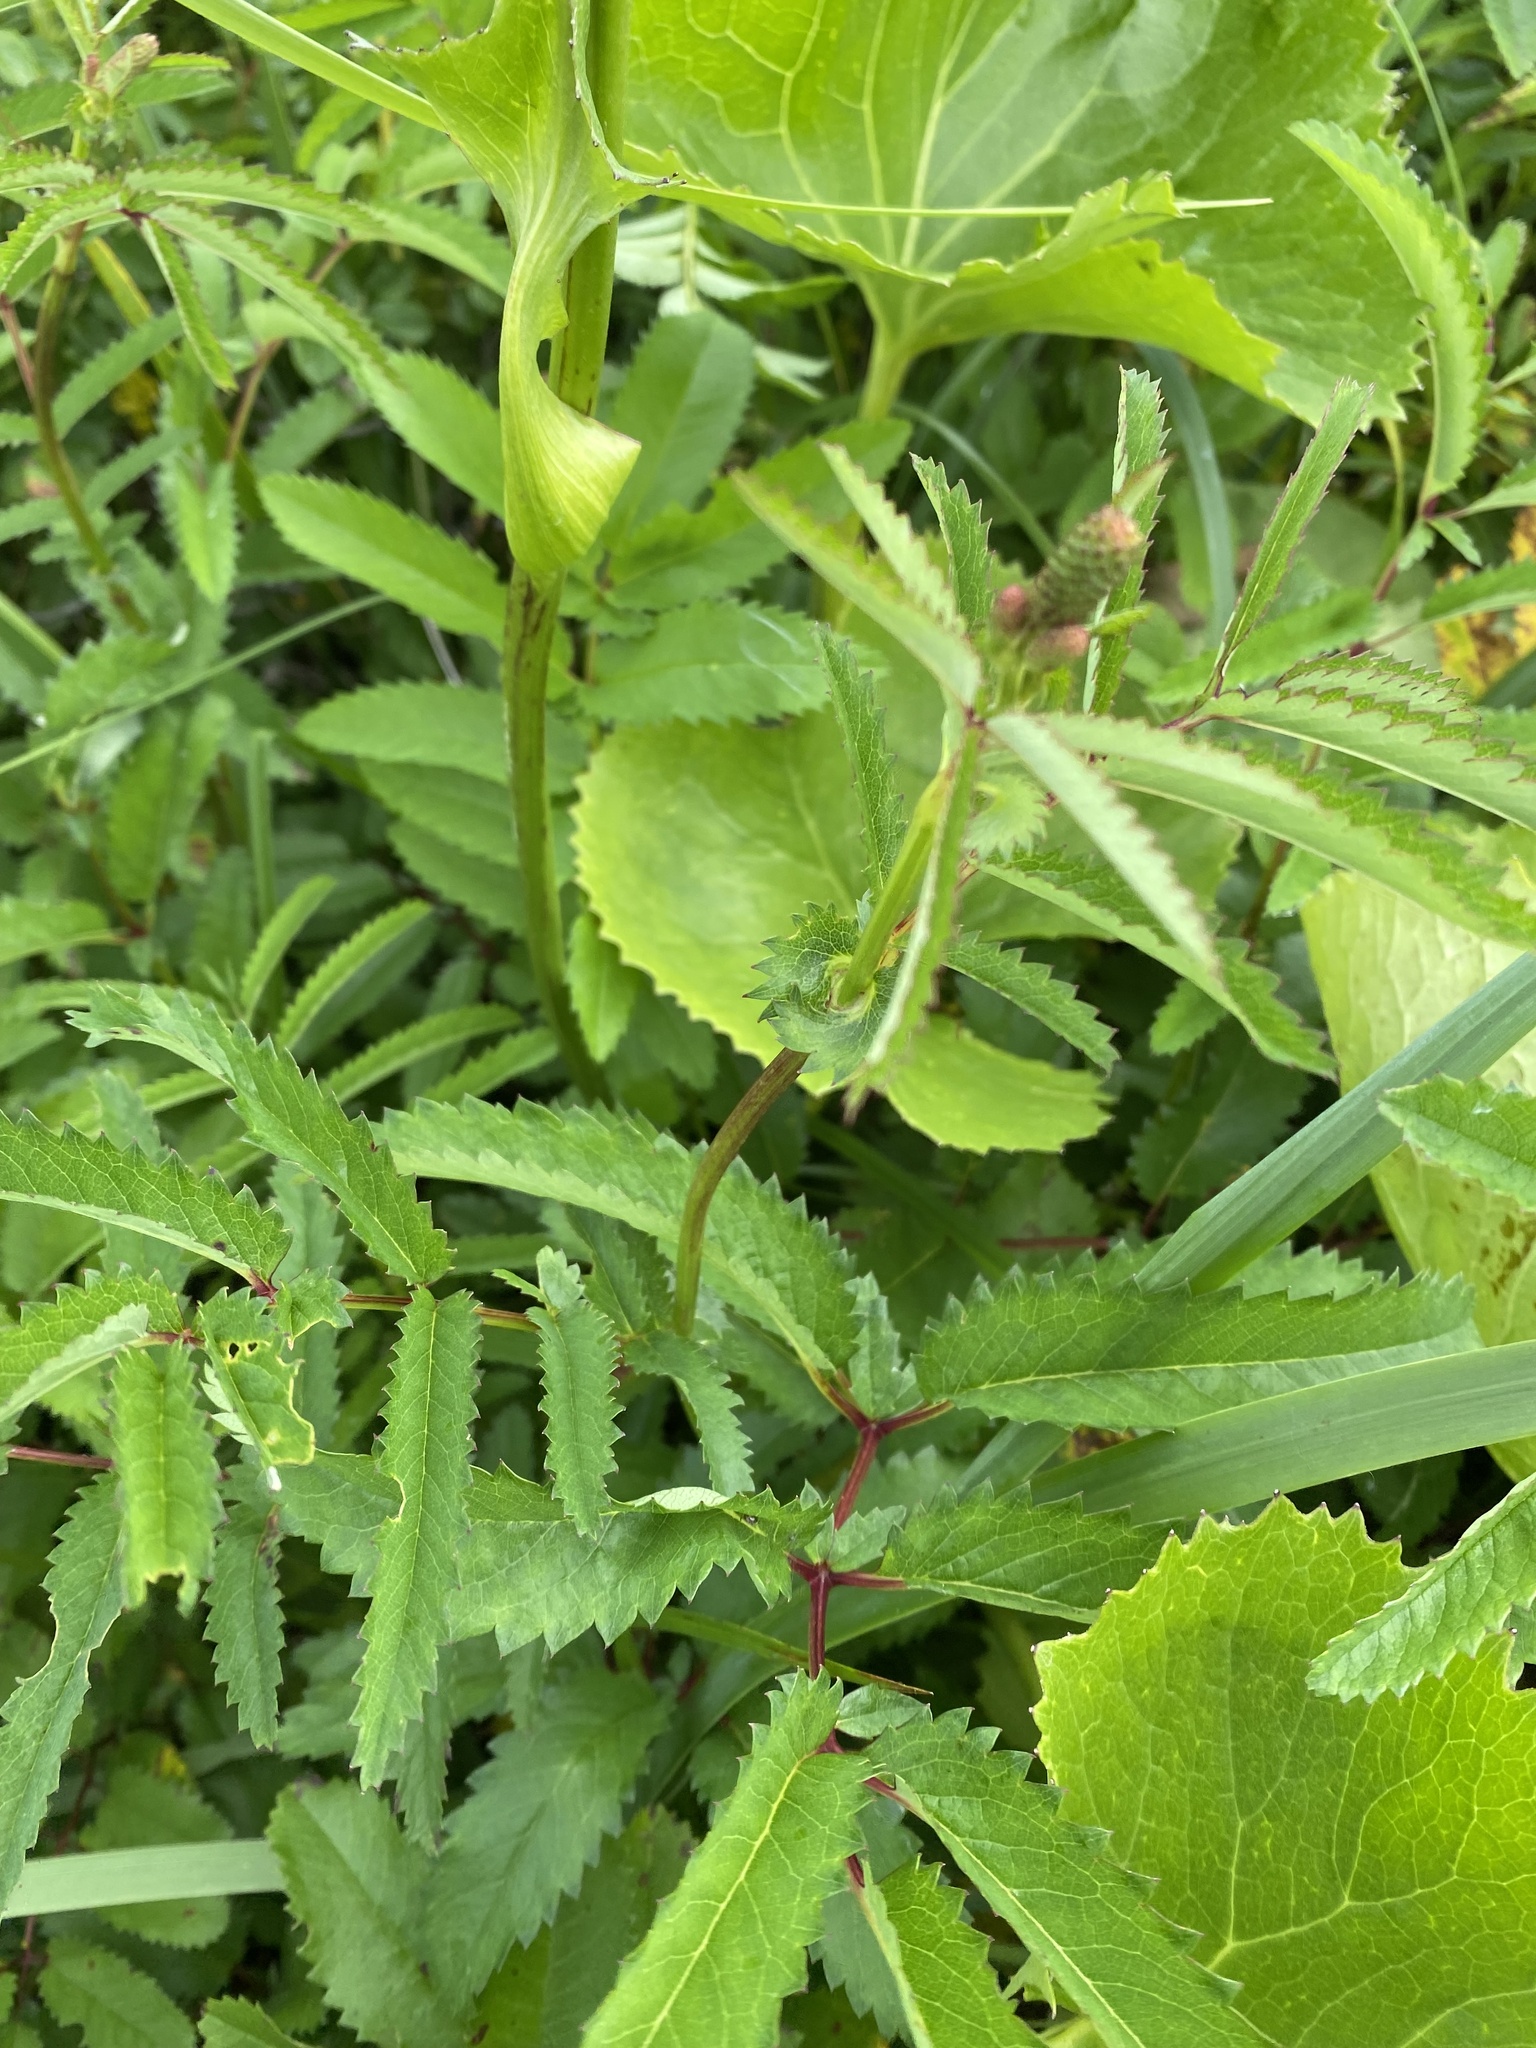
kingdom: Plantae
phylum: Tracheophyta
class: Magnoliopsida
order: Rosales
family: Rosaceae
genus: Poterium
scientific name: Poterium tenuifolium
